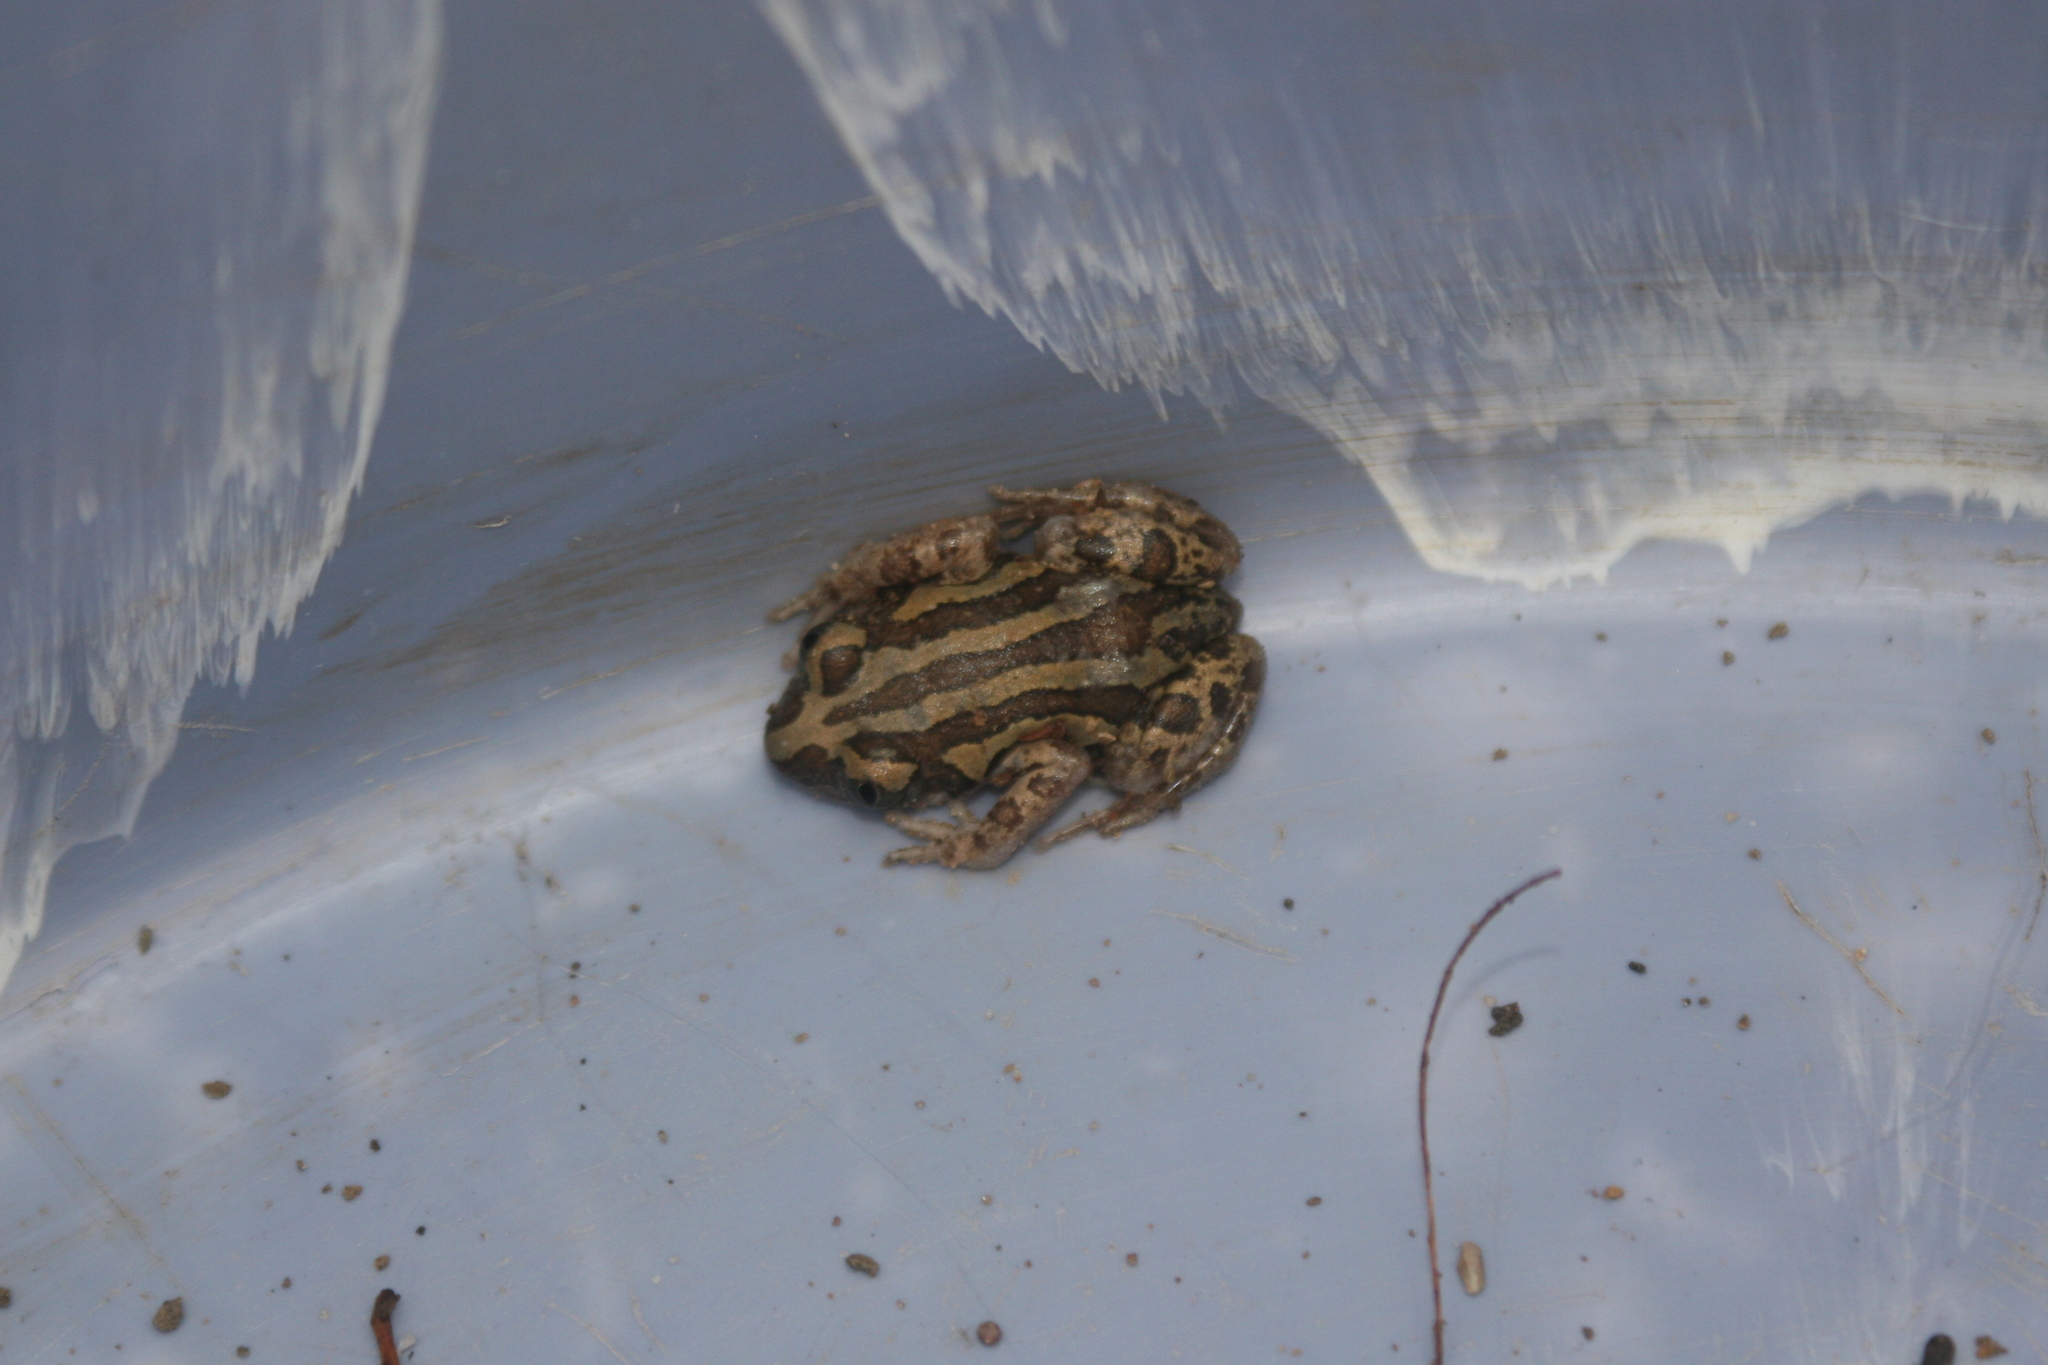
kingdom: Animalia
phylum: Chordata
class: Amphibia
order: Anura
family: Hyperoliidae
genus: Kassina
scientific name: Kassina senegalensis
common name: Senegal land frog
